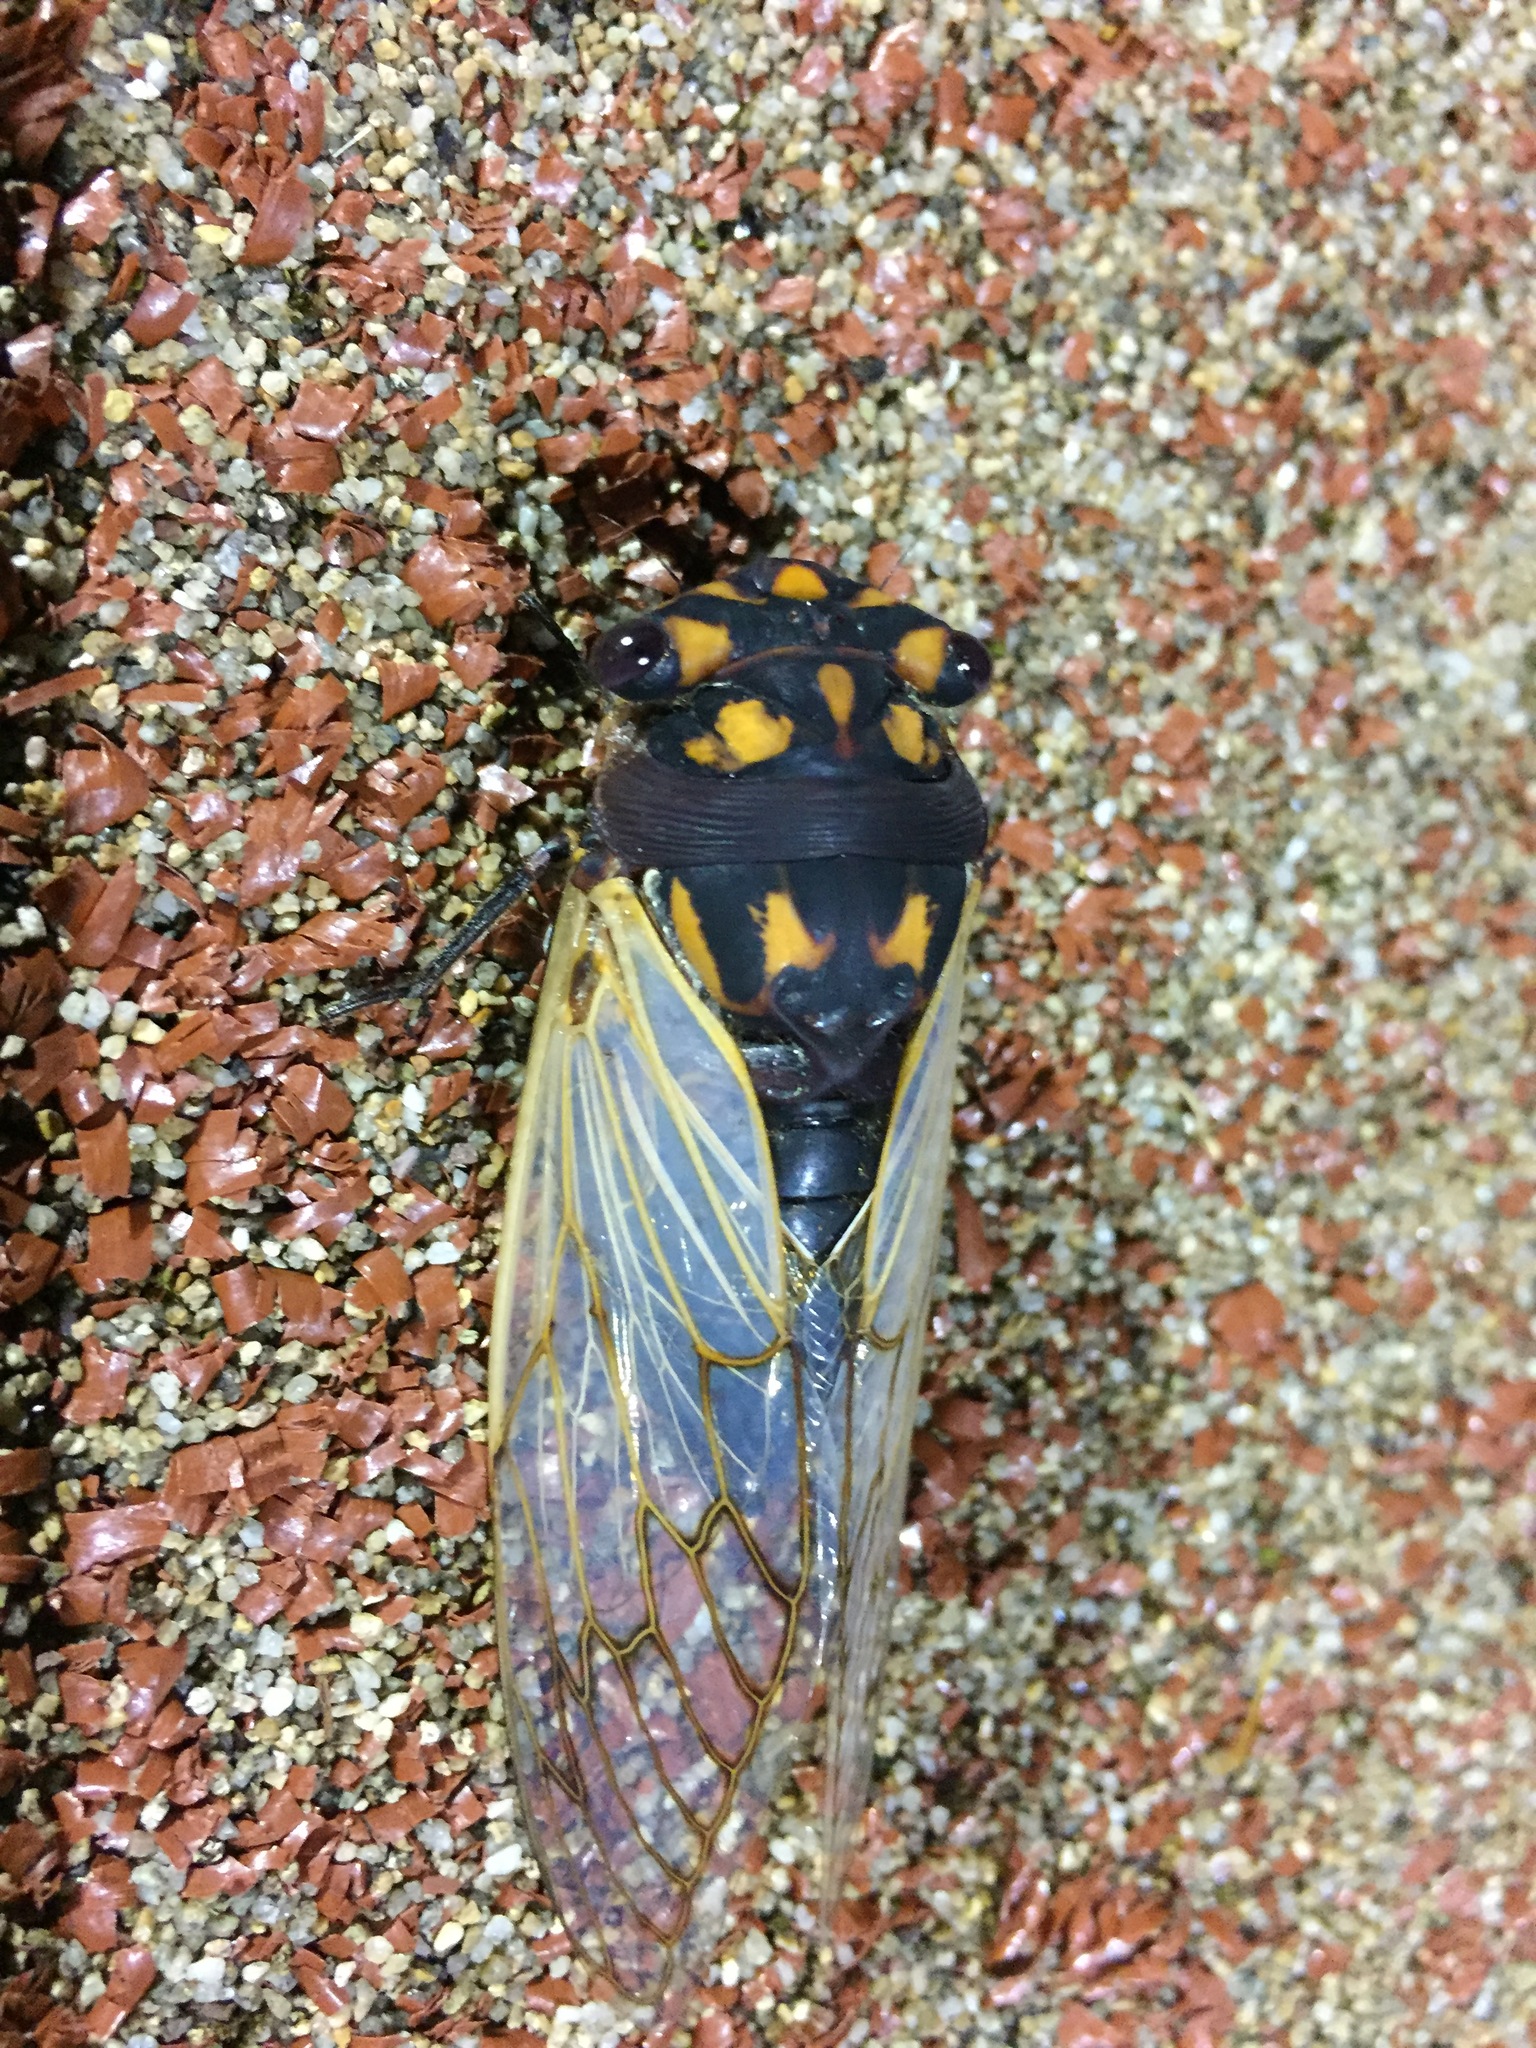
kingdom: Animalia
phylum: Arthropoda
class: Insecta
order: Hemiptera
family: Cicadidae
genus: Macrotristria
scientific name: Macrotristria angularis
